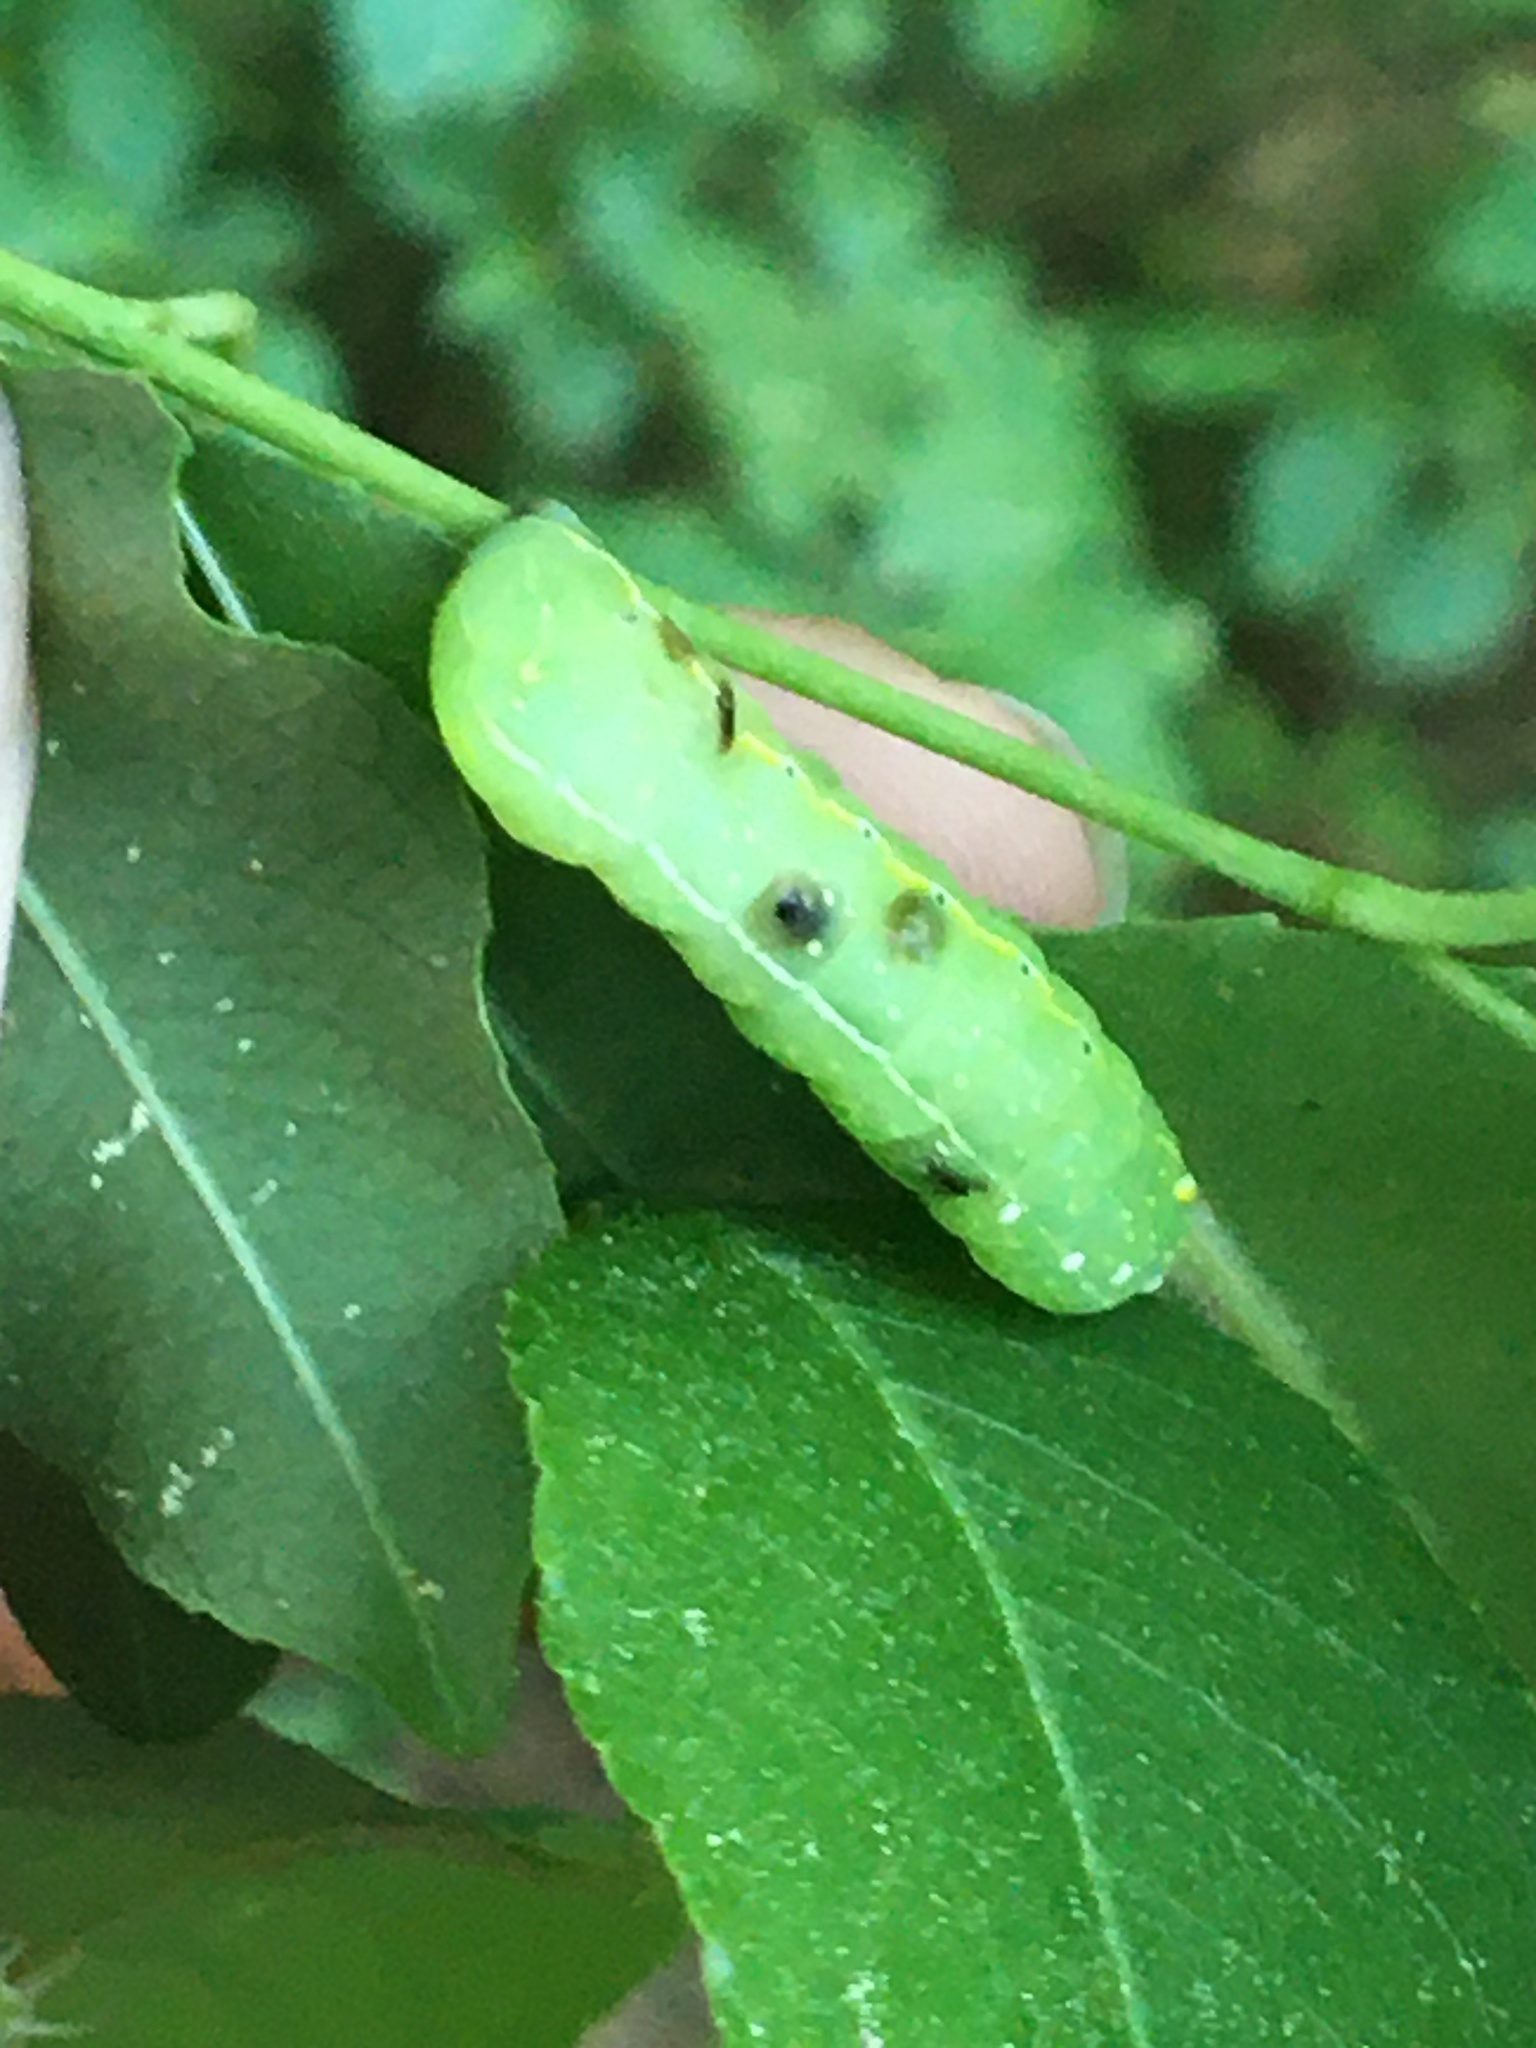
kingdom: Animalia
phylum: Arthropoda
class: Insecta
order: Lepidoptera
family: Noctuidae
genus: Amphipyra
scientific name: Amphipyra pyramidoides
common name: American copper underwing
